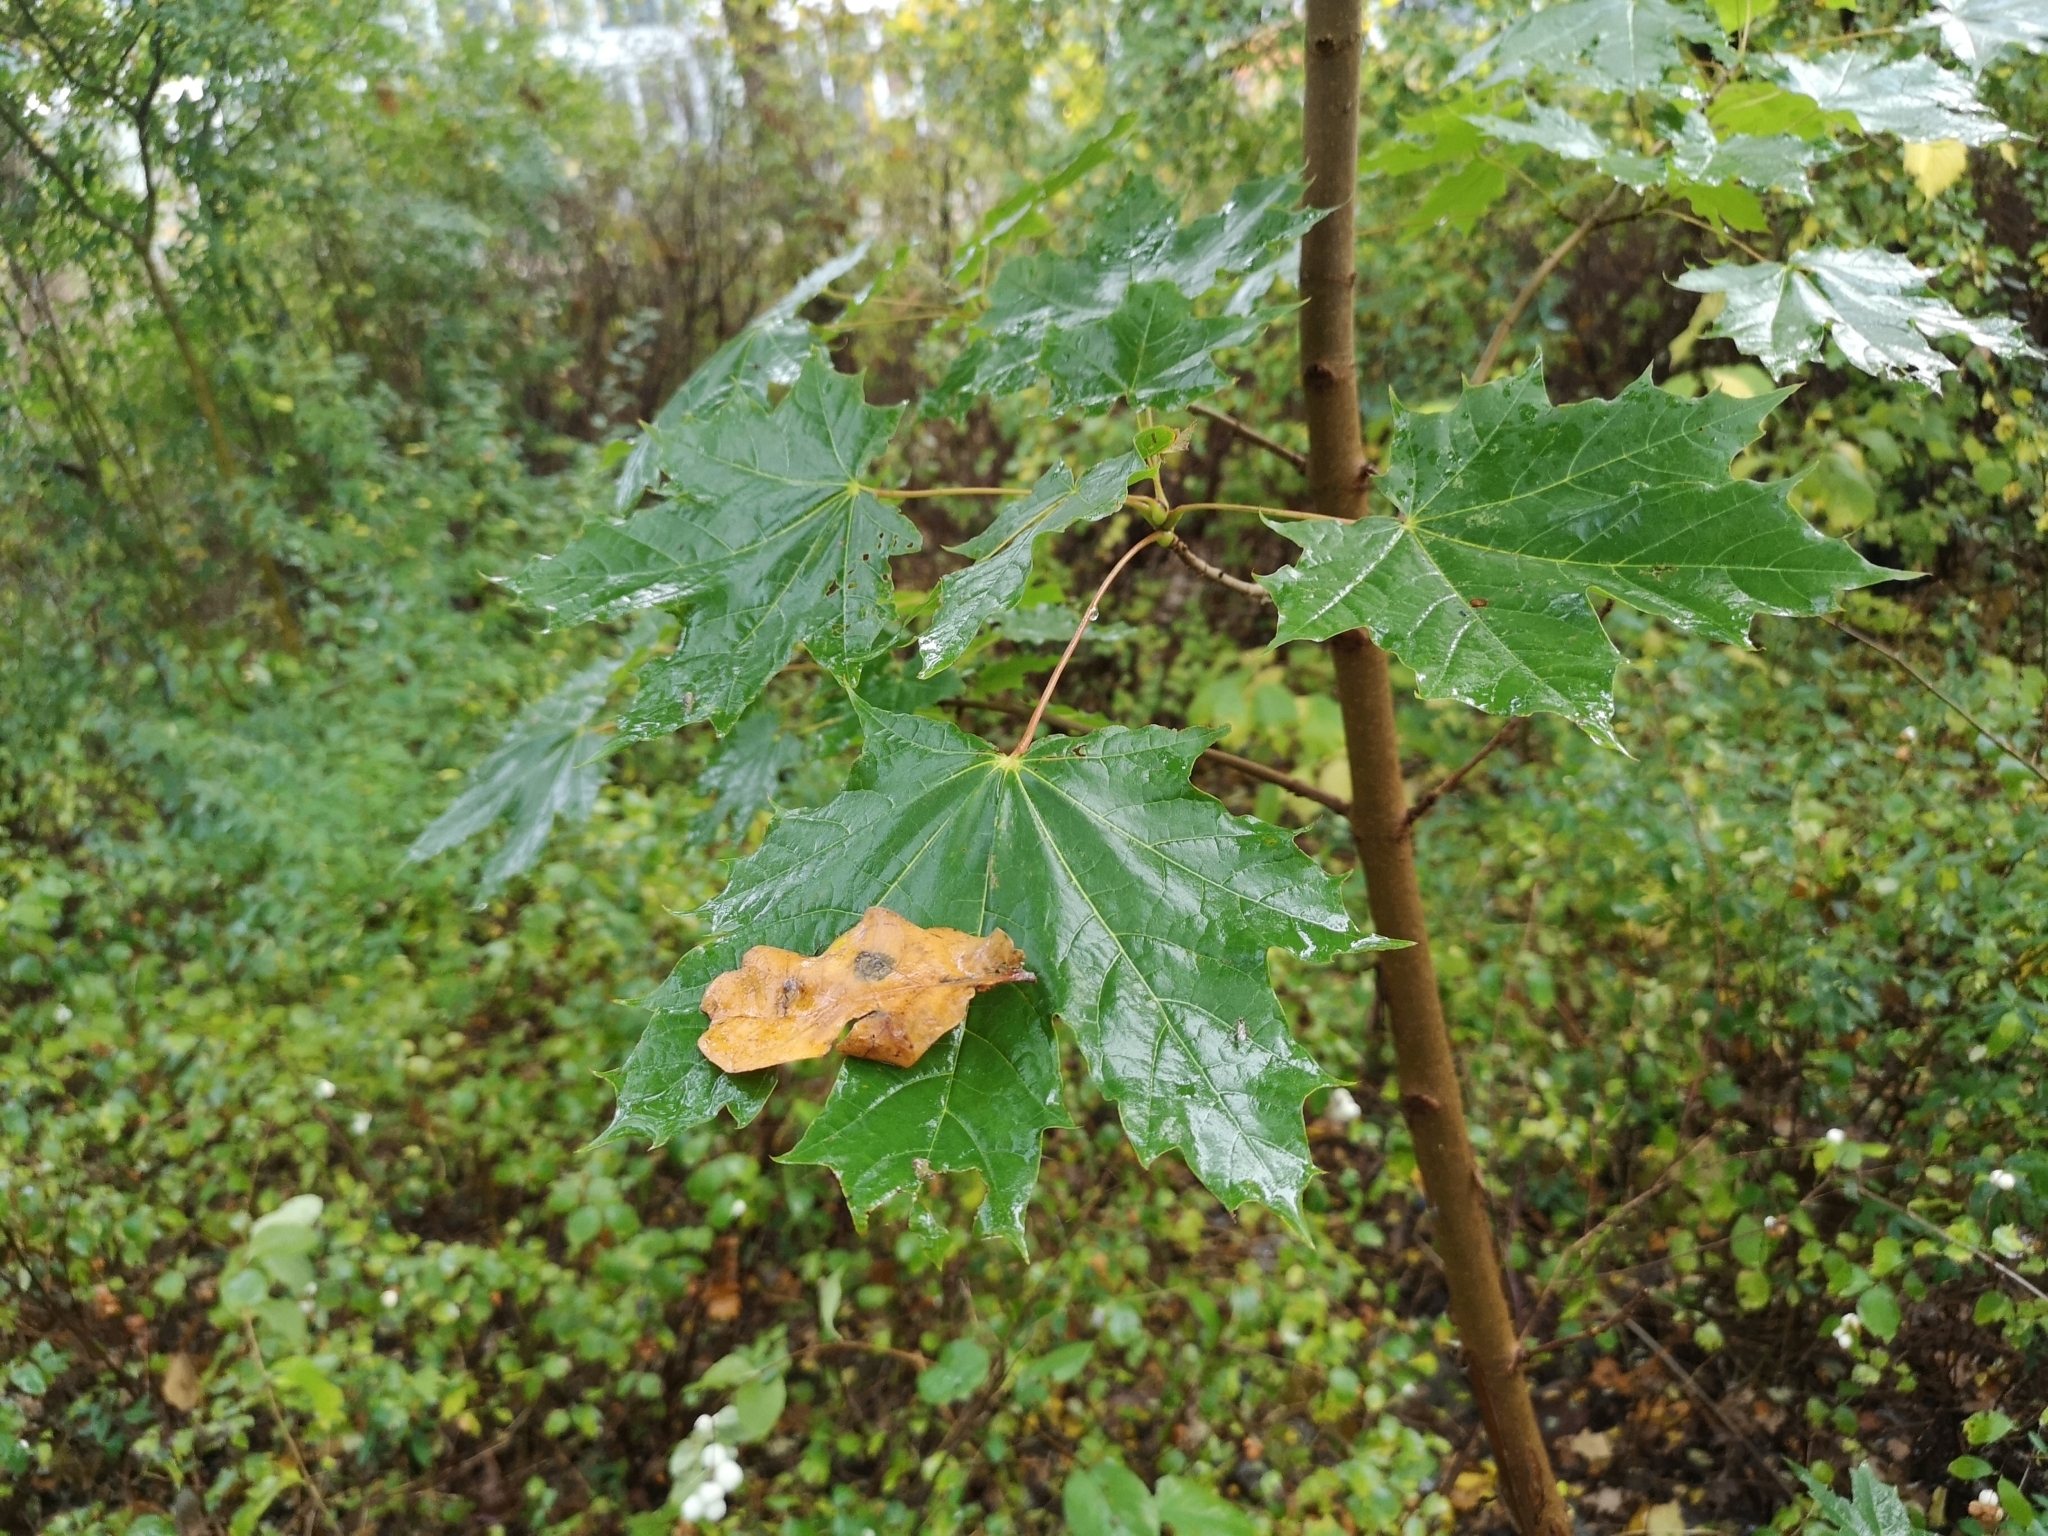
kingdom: Plantae
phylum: Tracheophyta
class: Magnoliopsida
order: Sapindales
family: Sapindaceae
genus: Acer
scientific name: Acer platanoides
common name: Norway maple
